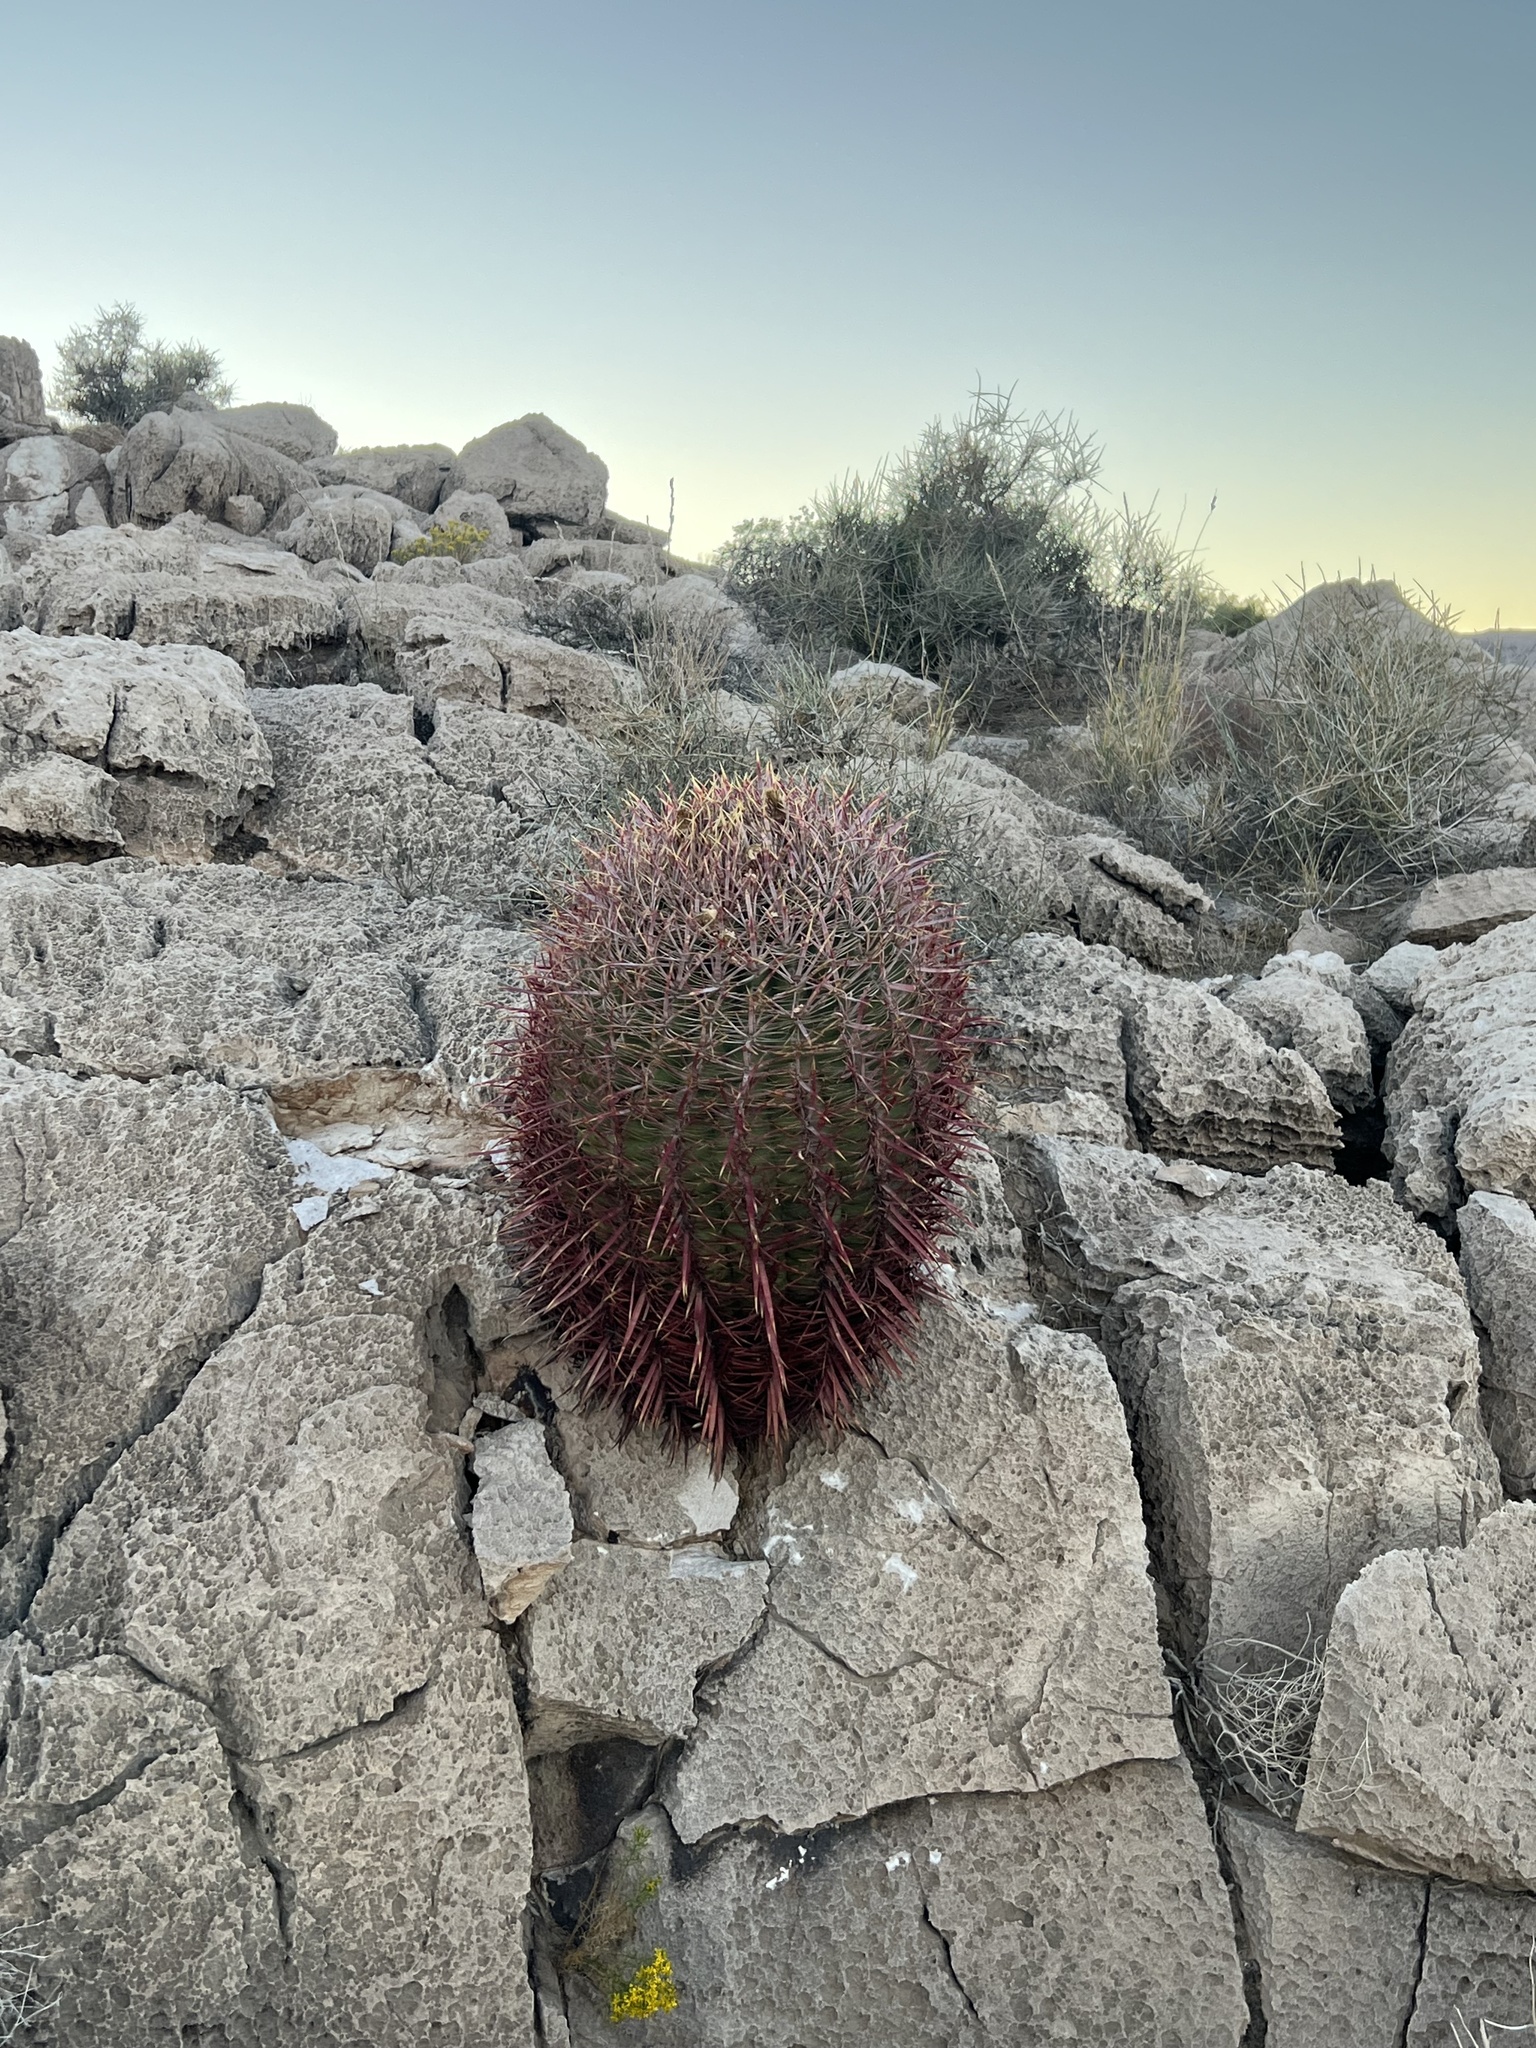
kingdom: Plantae
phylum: Tracheophyta
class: Magnoliopsida
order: Caryophyllales
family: Cactaceae
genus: Ferocactus
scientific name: Ferocactus cylindraceus
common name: California barrel cactus
